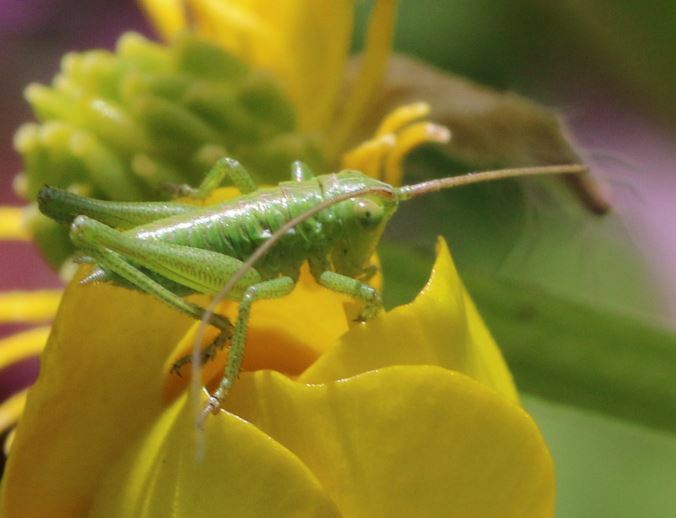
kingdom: Animalia
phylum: Arthropoda
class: Insecta
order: Orthoptera
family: Tettigoniidae
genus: Tettigonia
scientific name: Tettigonia viridissima
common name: Great green bush-cricket
